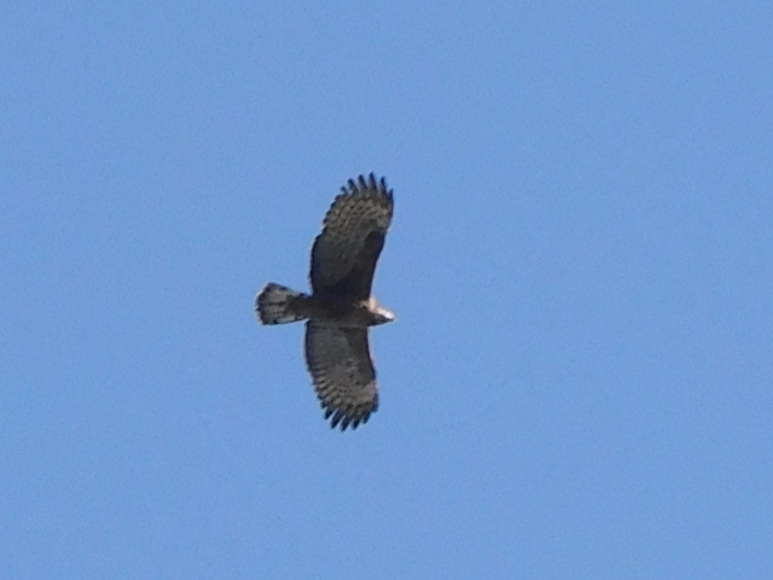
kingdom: Animalia
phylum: Chordata
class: Aves
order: Accipitriformes
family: Accipitridae
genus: Pernis
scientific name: Pernis ptilorhynchus
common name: Crested honey buzzard
